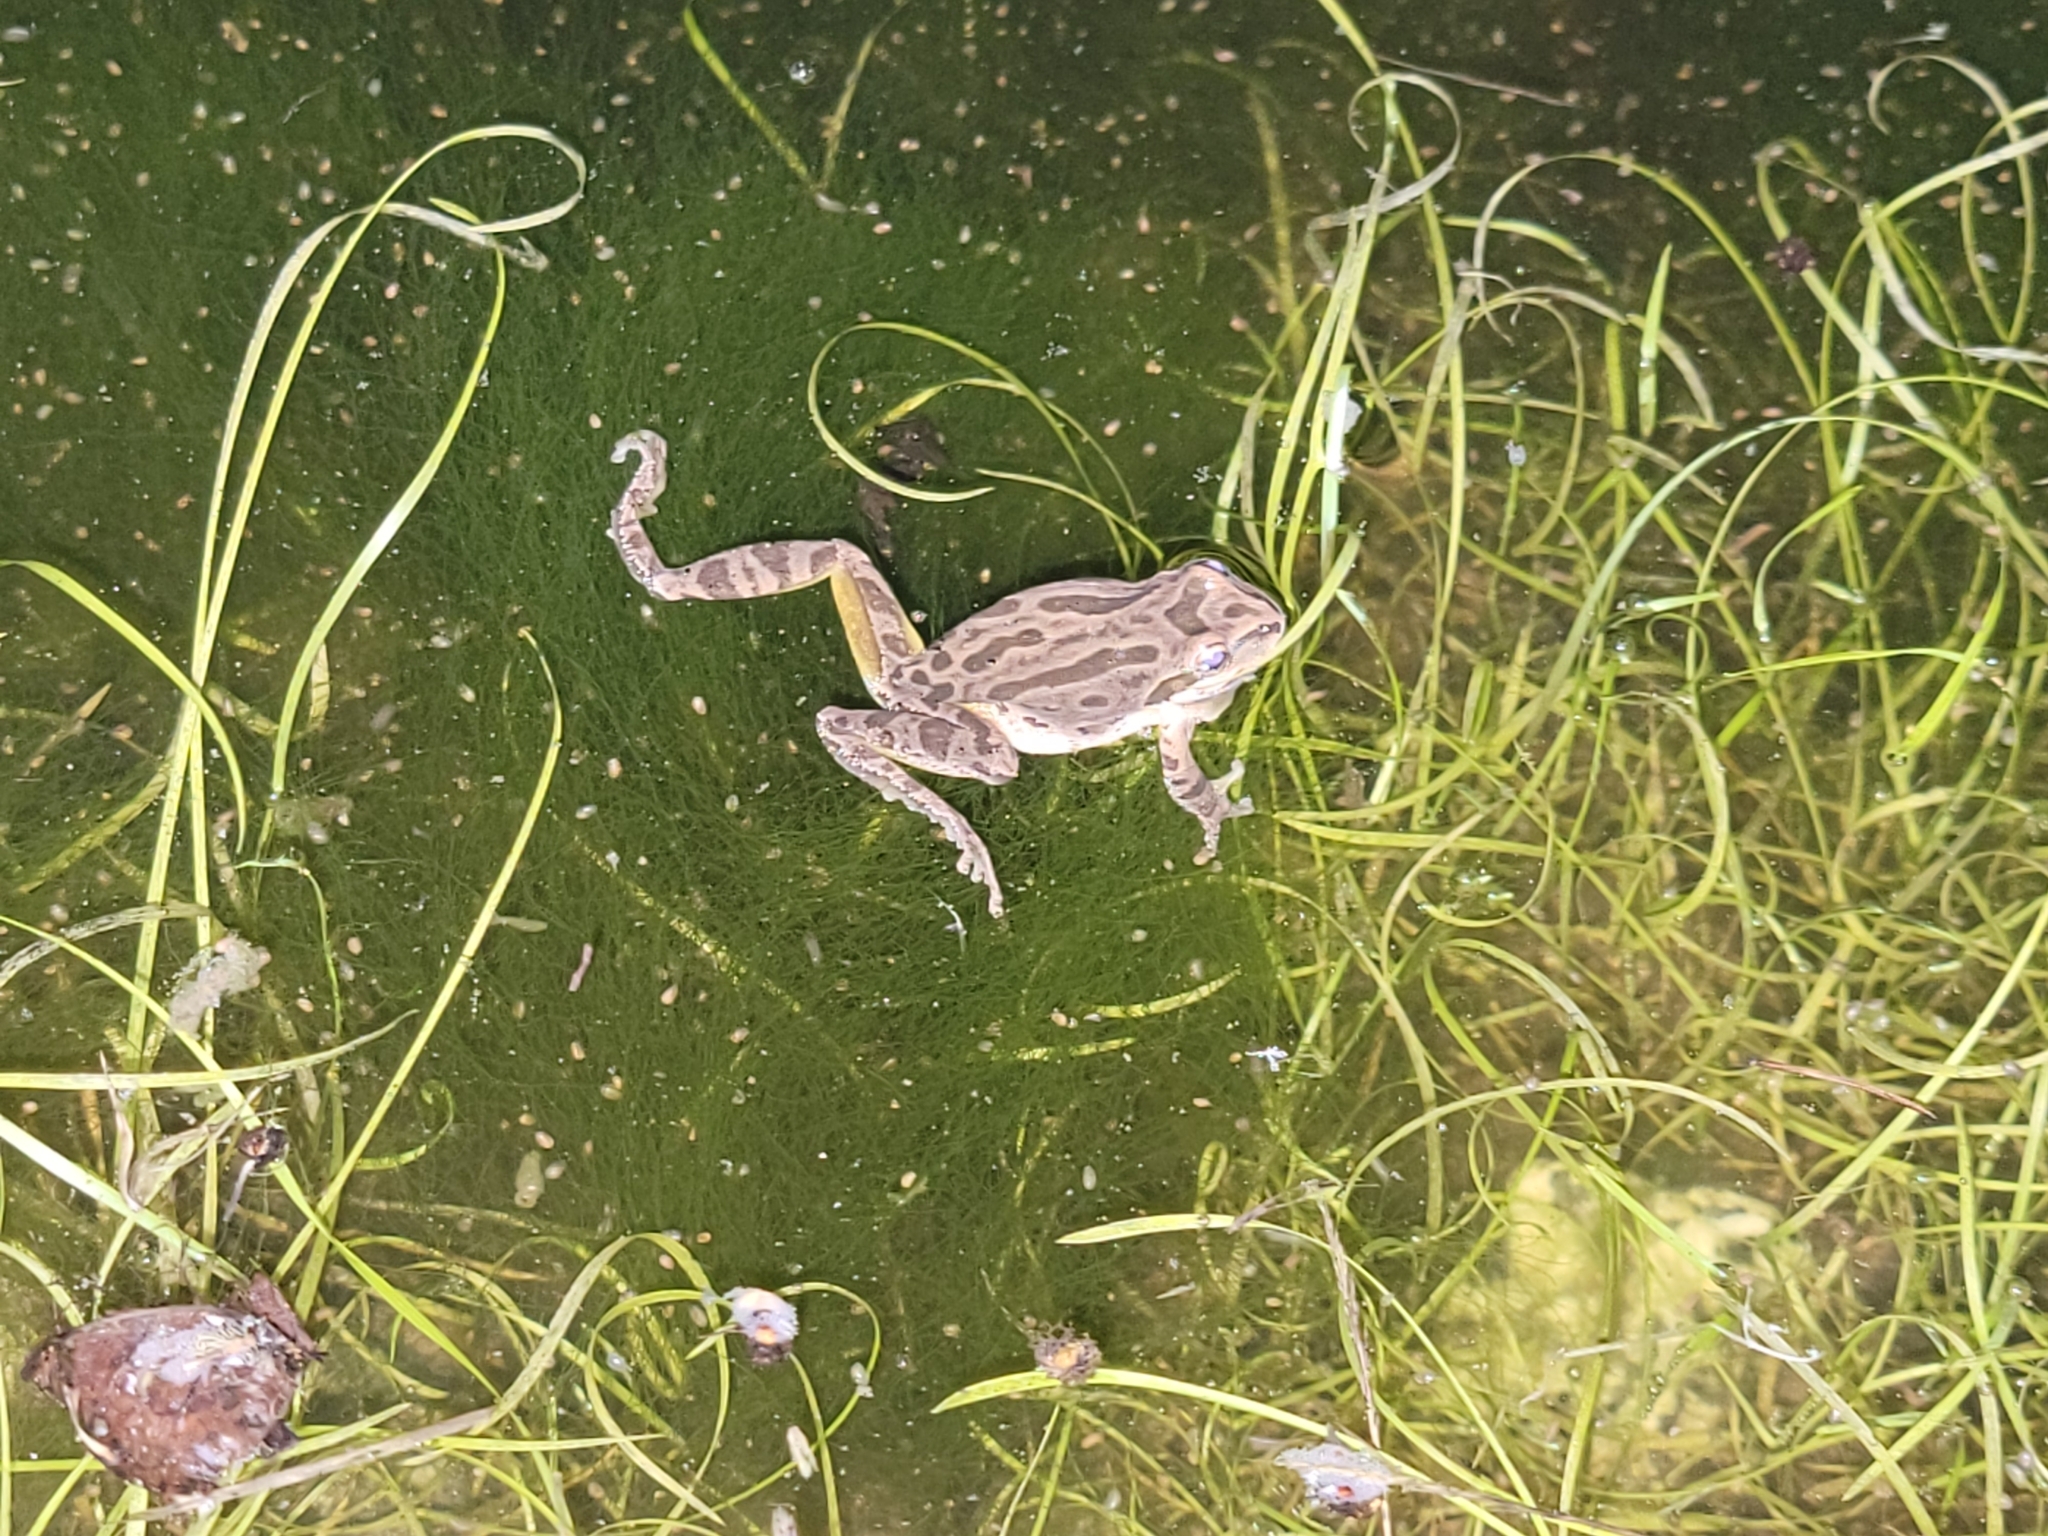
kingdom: Animalia
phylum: Chordata
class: Amphibia
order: Anura
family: Hylidae
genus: Pseudacris
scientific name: Pseudacris regilla
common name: Pacific chorus frog
